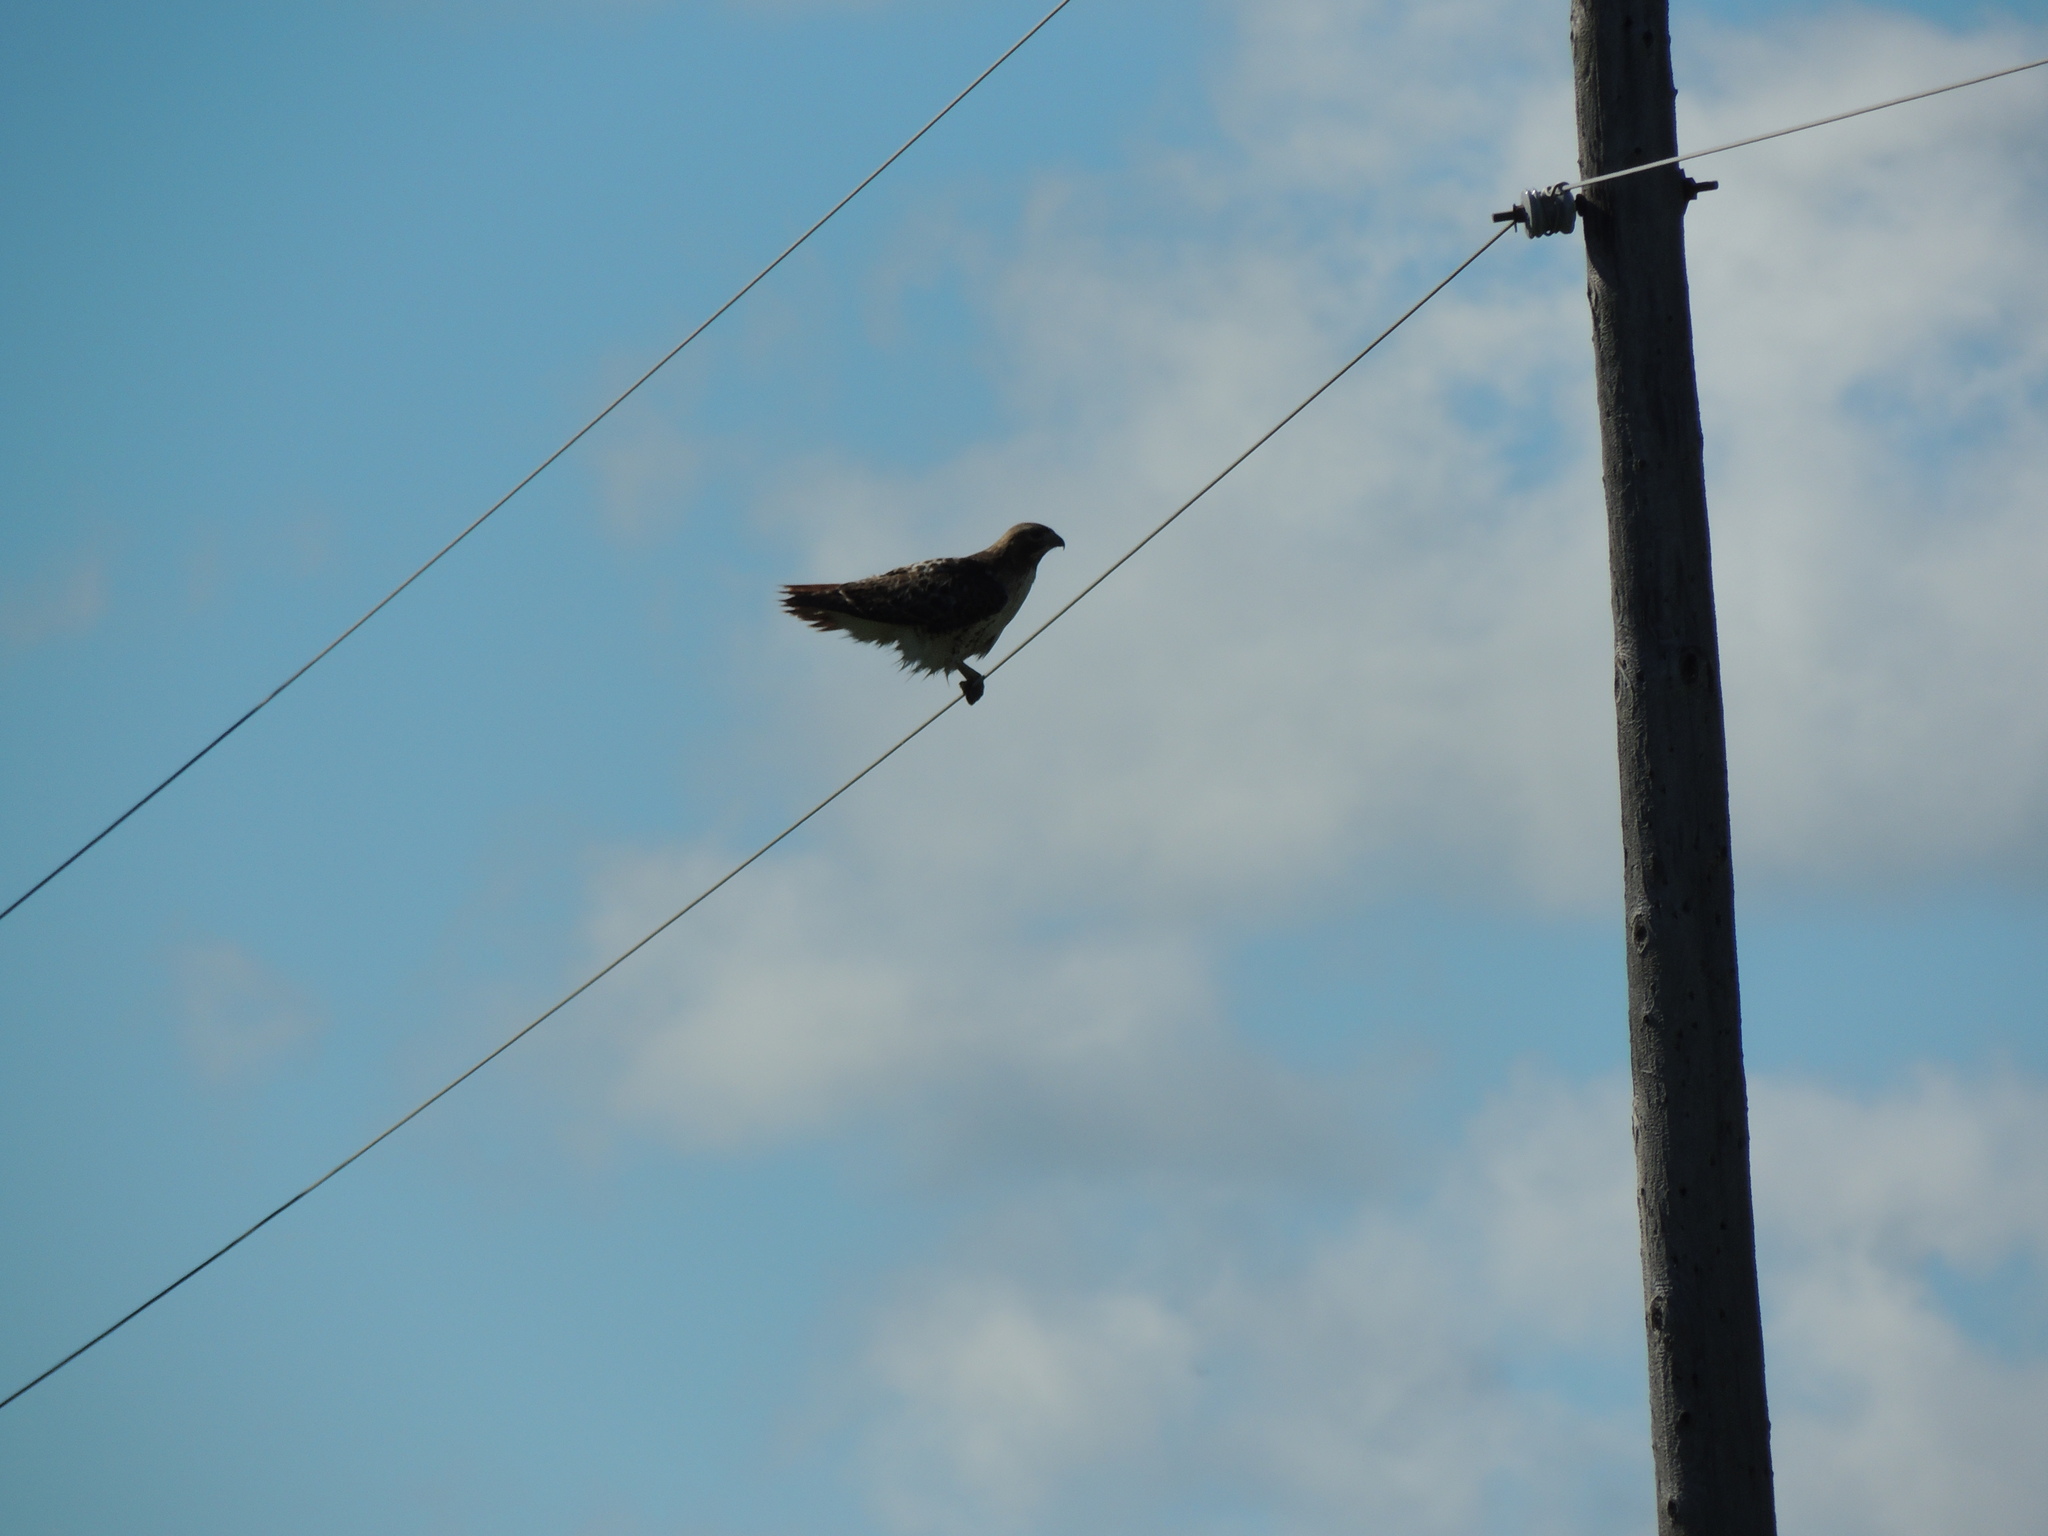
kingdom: Animalia
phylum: Chordata
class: Aves
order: Accipitriformes
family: Accipitridae
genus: Buteo
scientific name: Buteo jamaicensis
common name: Red-tailed hawk
